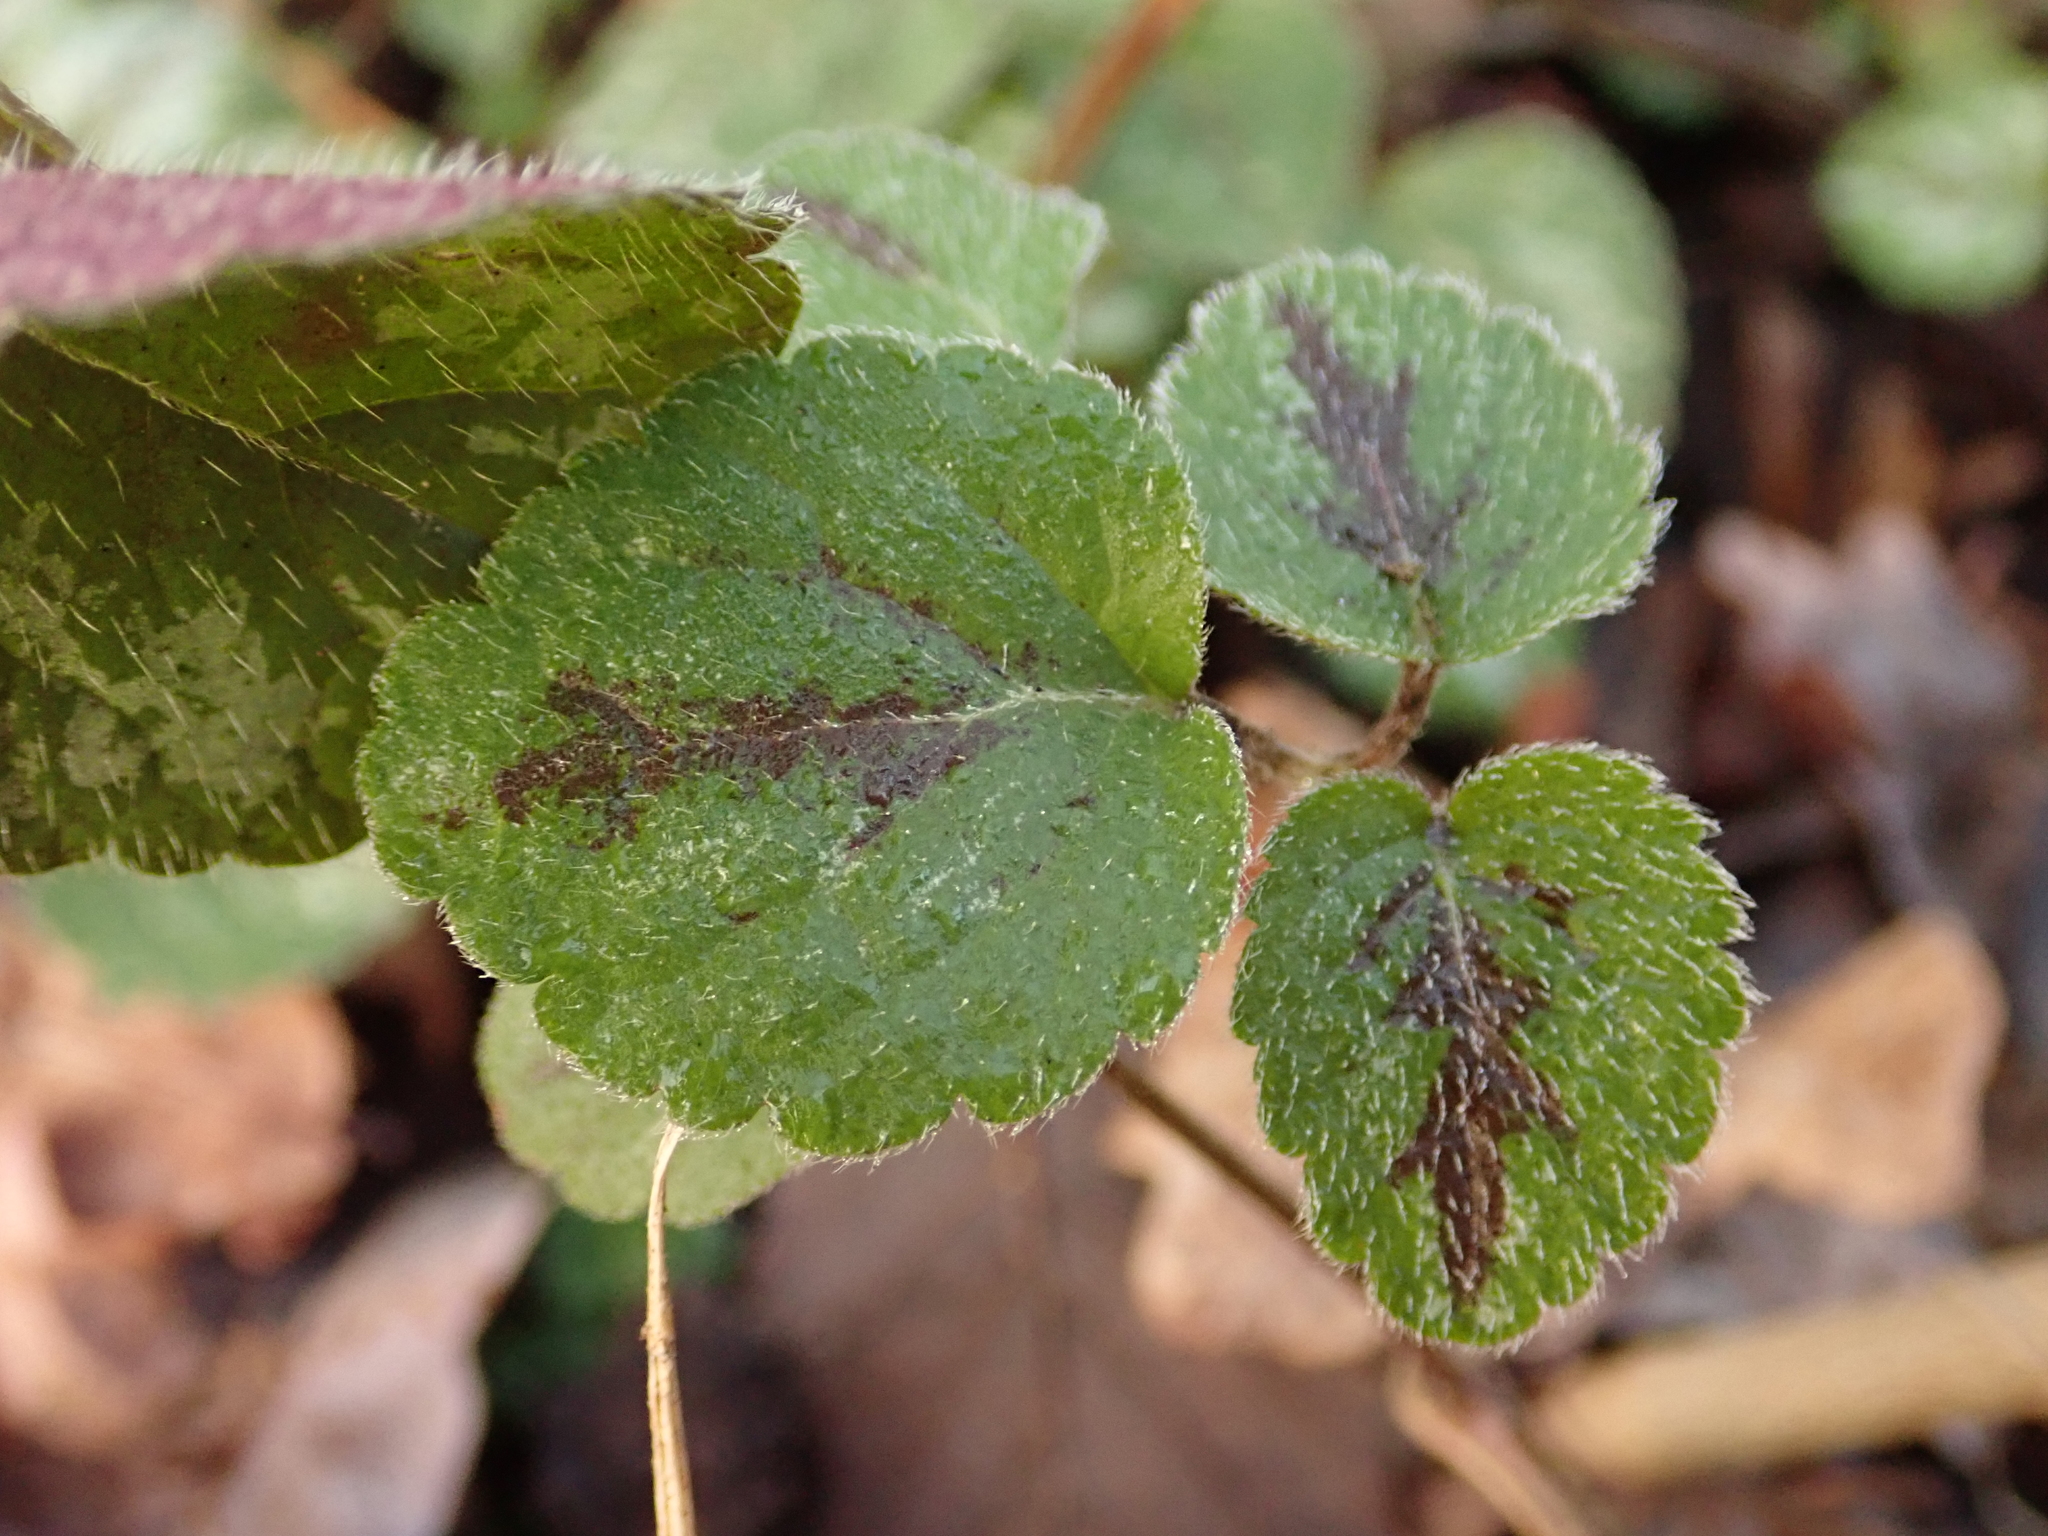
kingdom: Plantae
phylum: Tracheophyta
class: Magnoliopsida
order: Lamiales
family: Lamiaceae
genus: Lamium
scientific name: Lamium galeobdolon
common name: Yellow archangel
